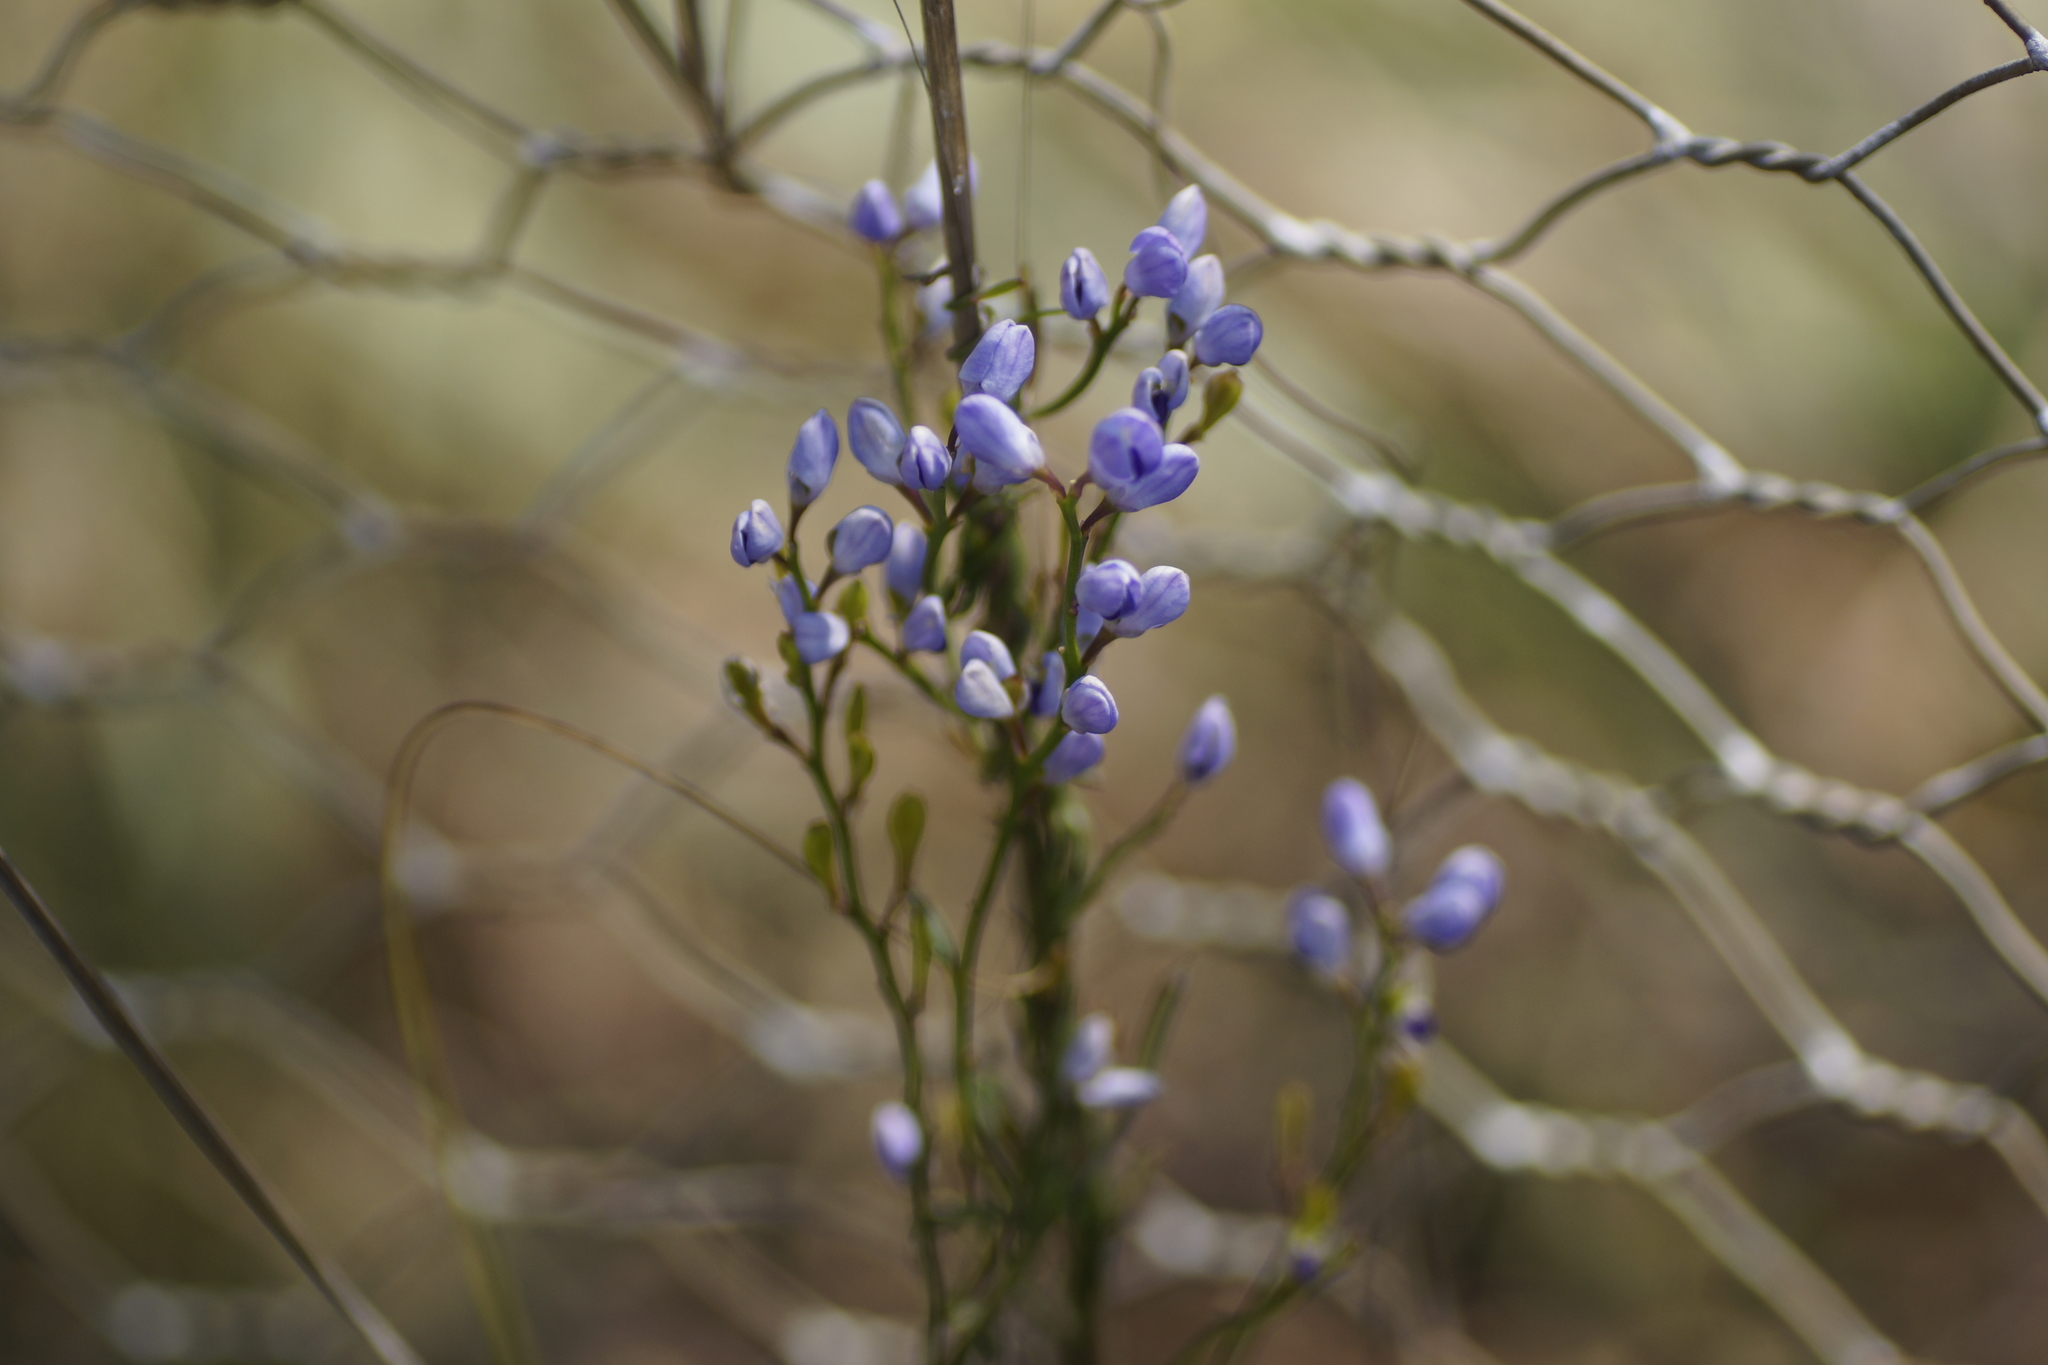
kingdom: Plantae
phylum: Tracheophyta
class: Magnoliopsida
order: Fabales
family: Polygalaceae
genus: Comesperma
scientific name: Comesperma volubile
